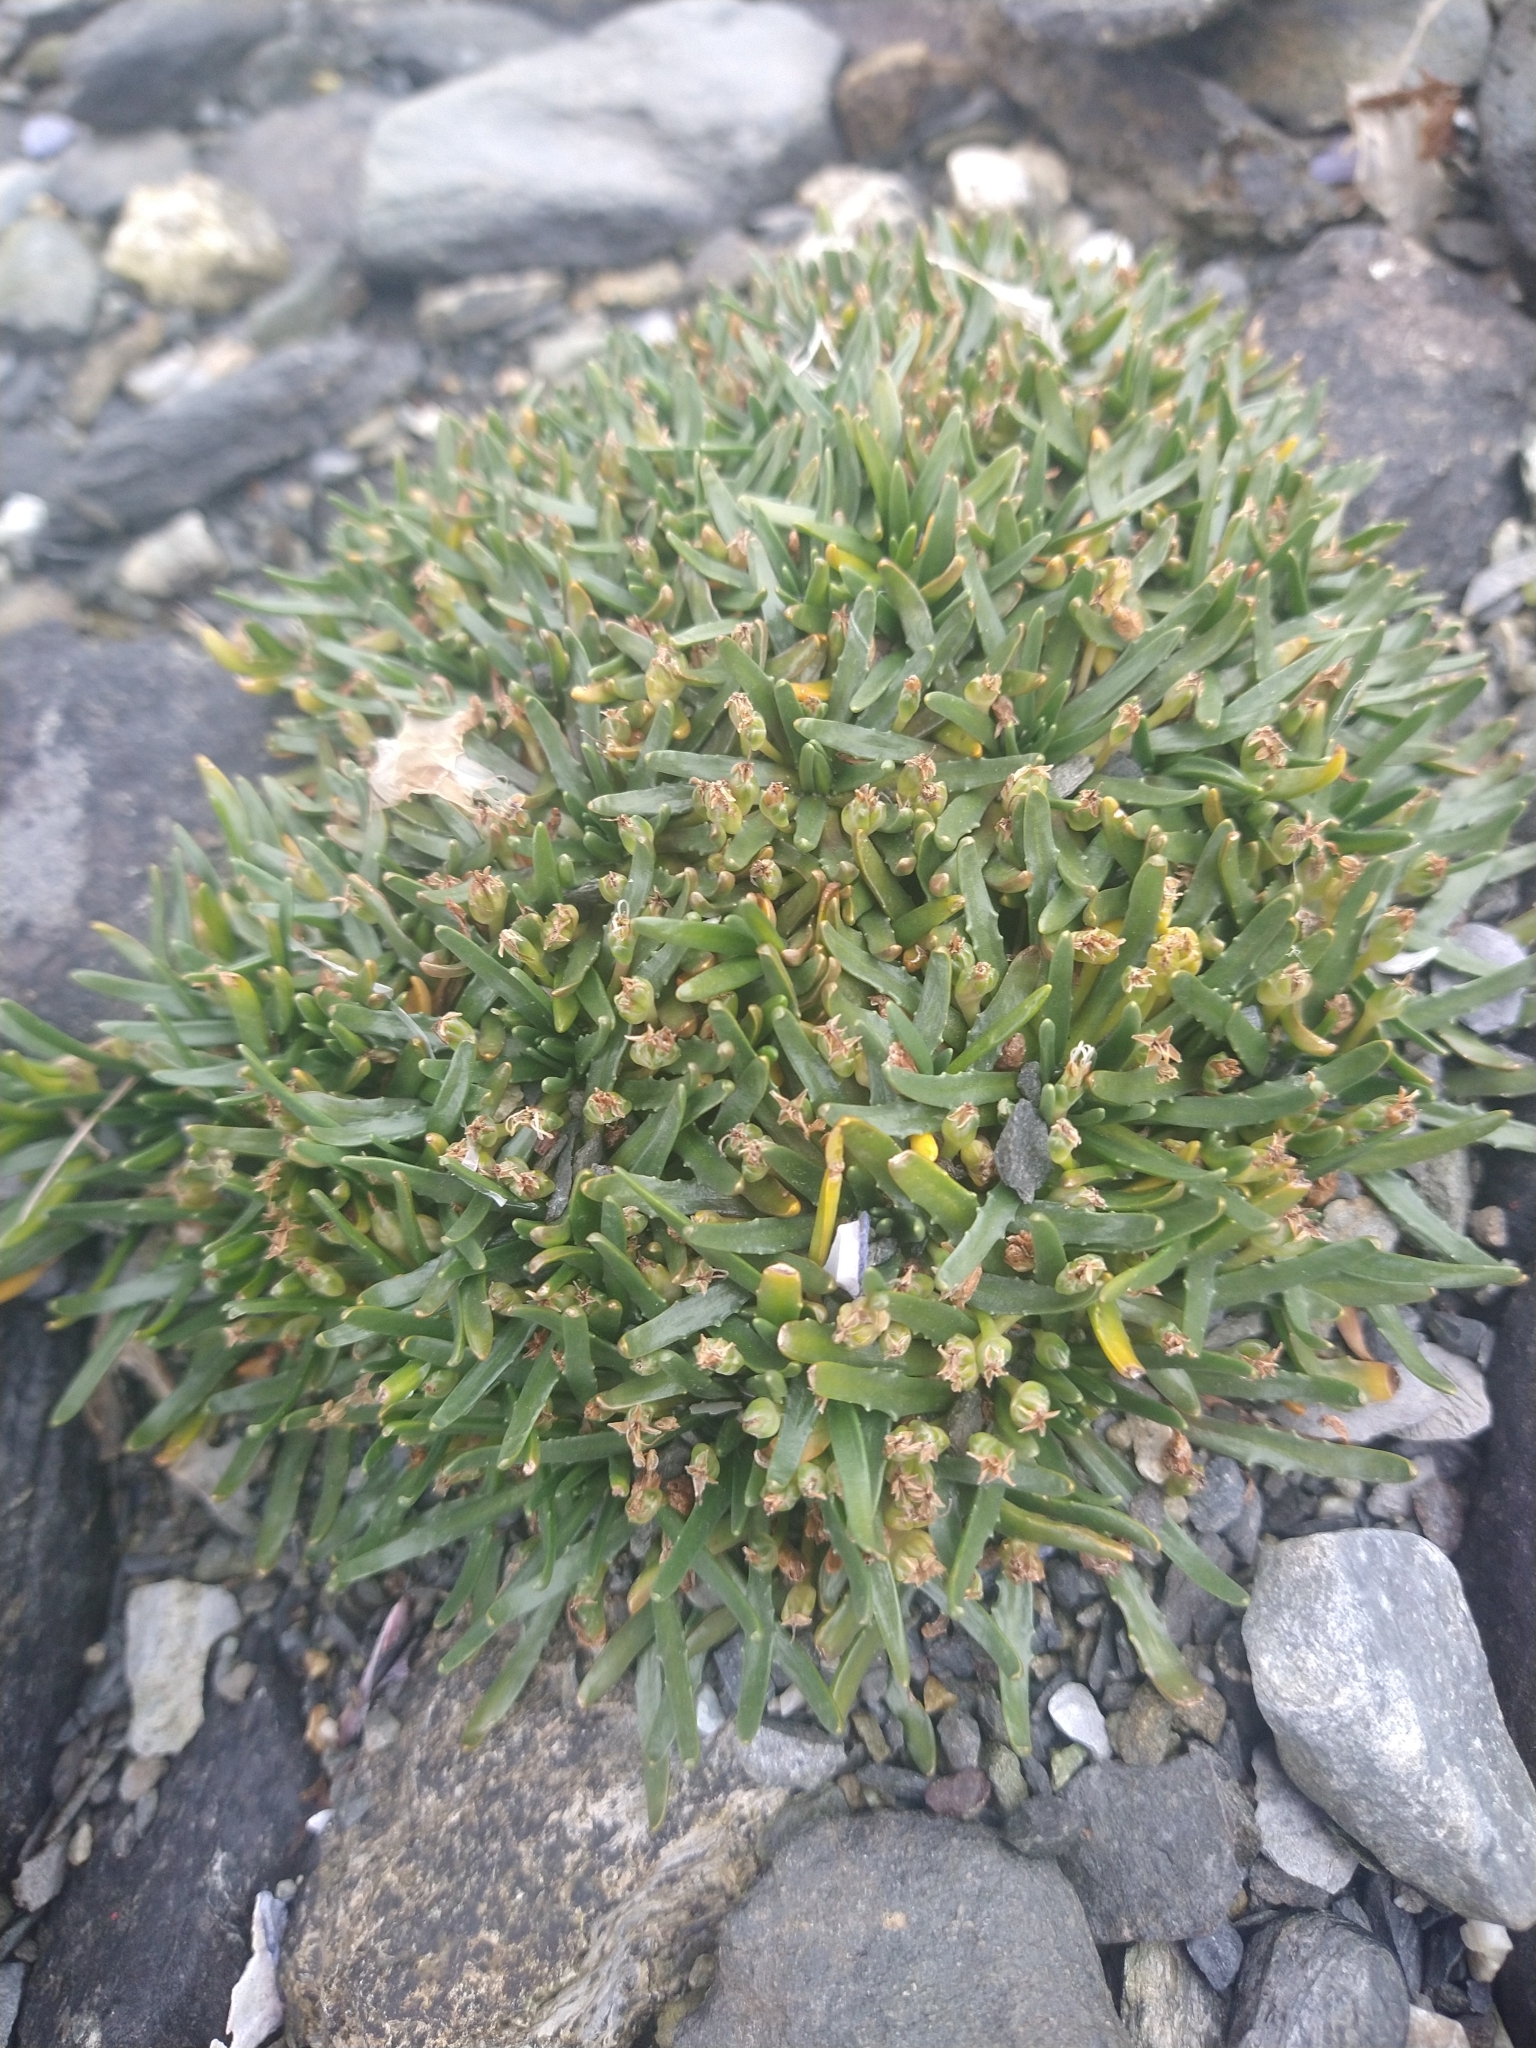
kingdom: Plantae
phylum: Tracheophyta
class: Magnoliopsida
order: Lamiales
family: Plantaginaceae
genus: Plantago
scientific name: Plantago barbata
